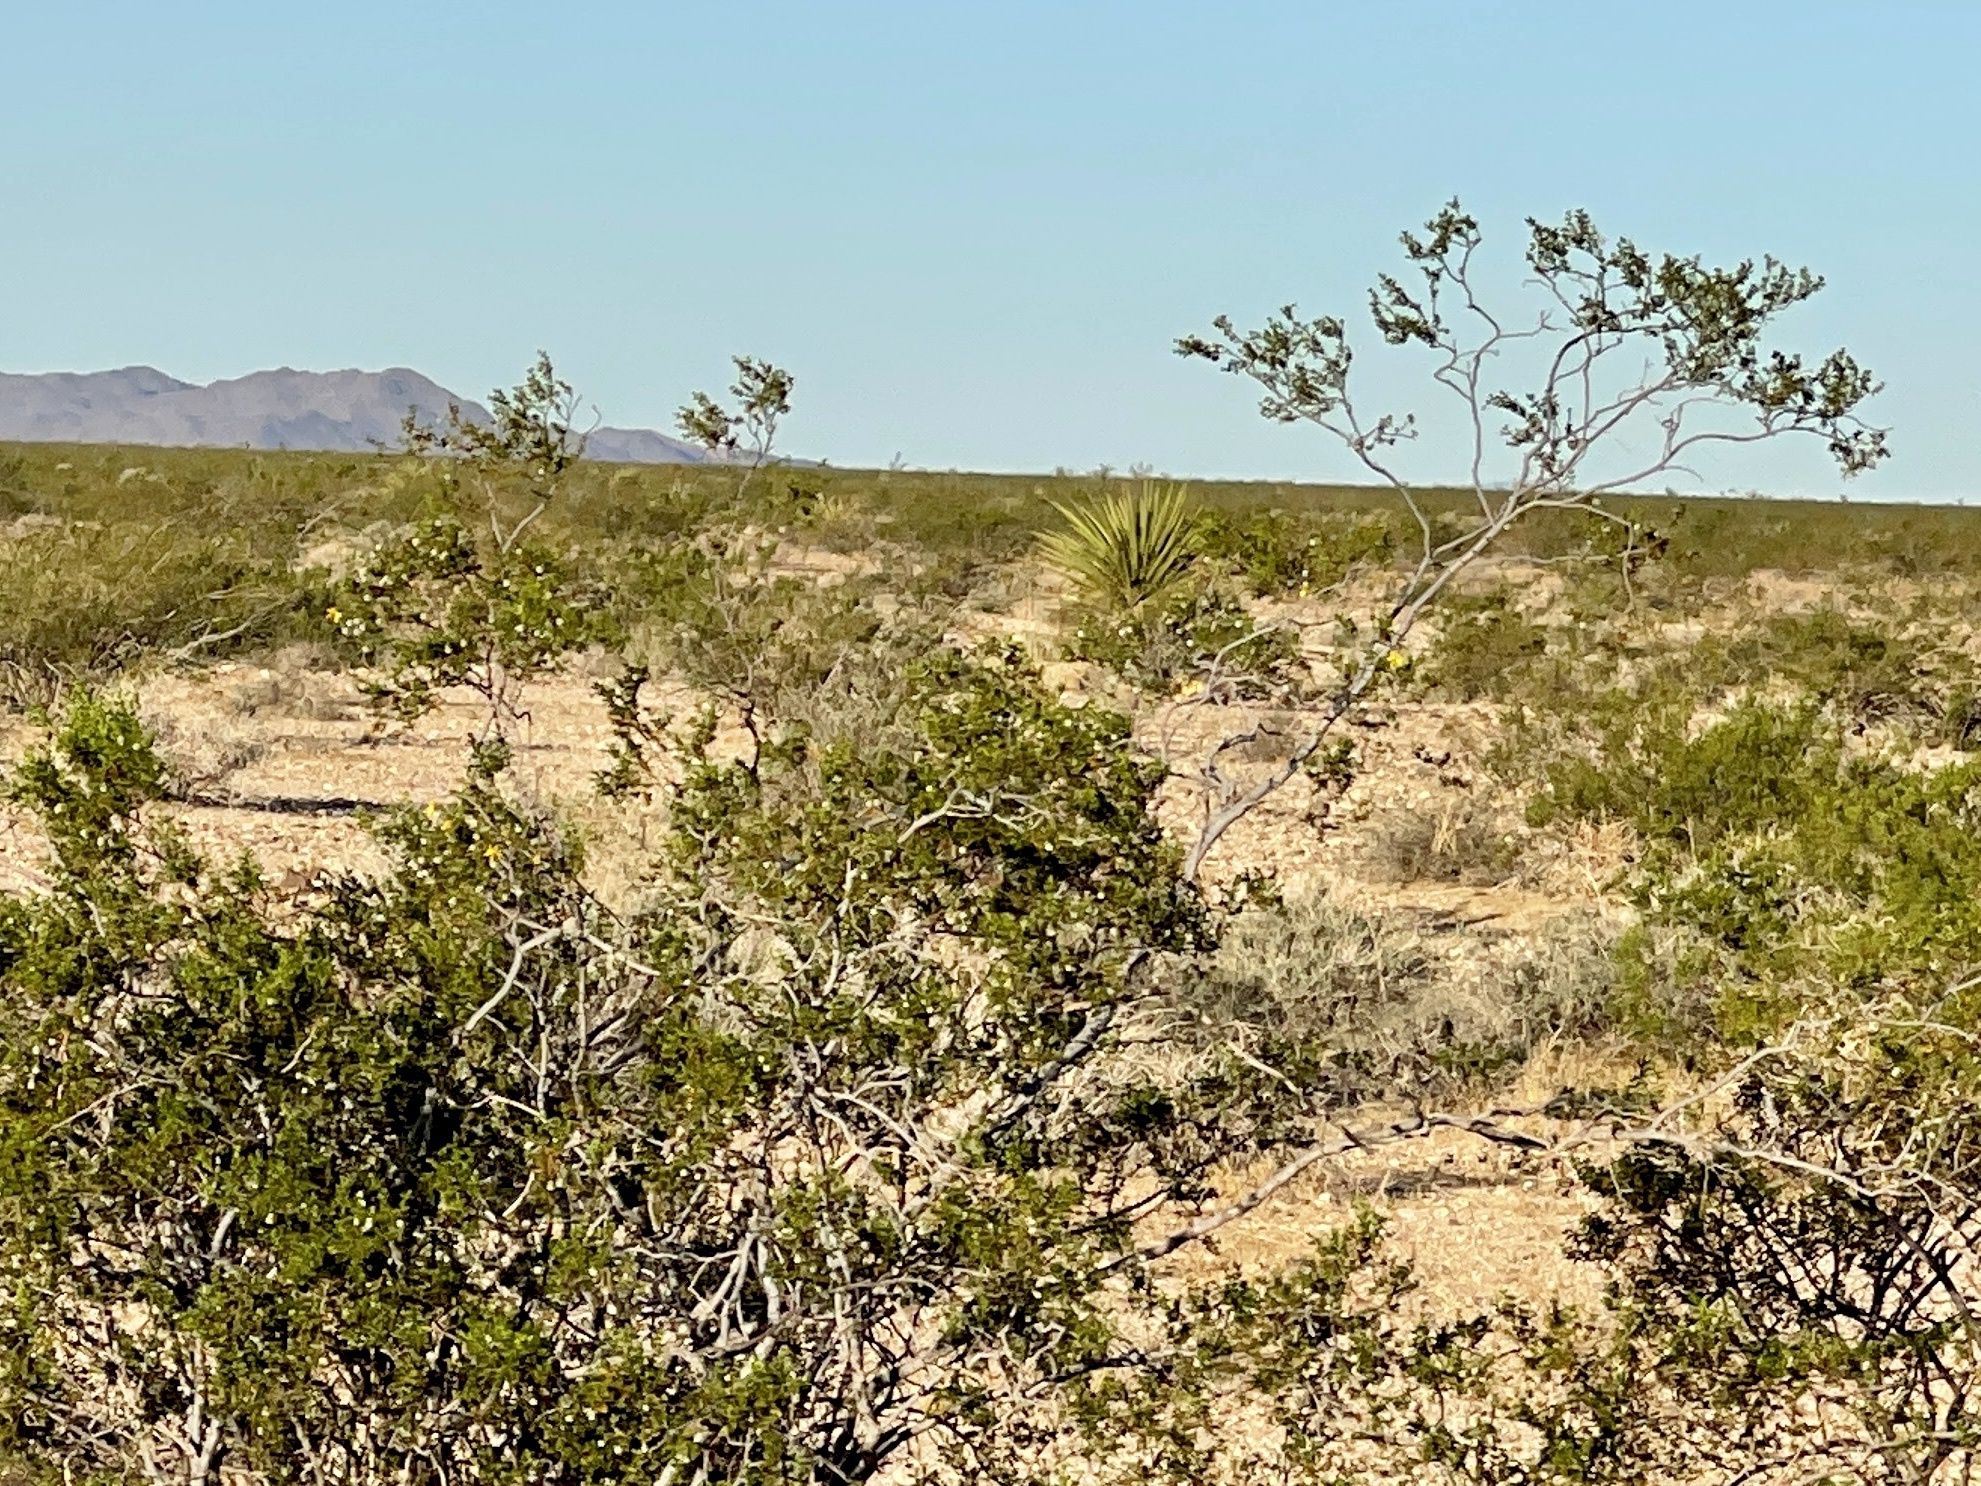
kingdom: Plantae
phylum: Tracheophyta
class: Magnoliopsida
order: Zygophyllales
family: Zygophyllaceae
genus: Larrea
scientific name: Larrea tridentata
